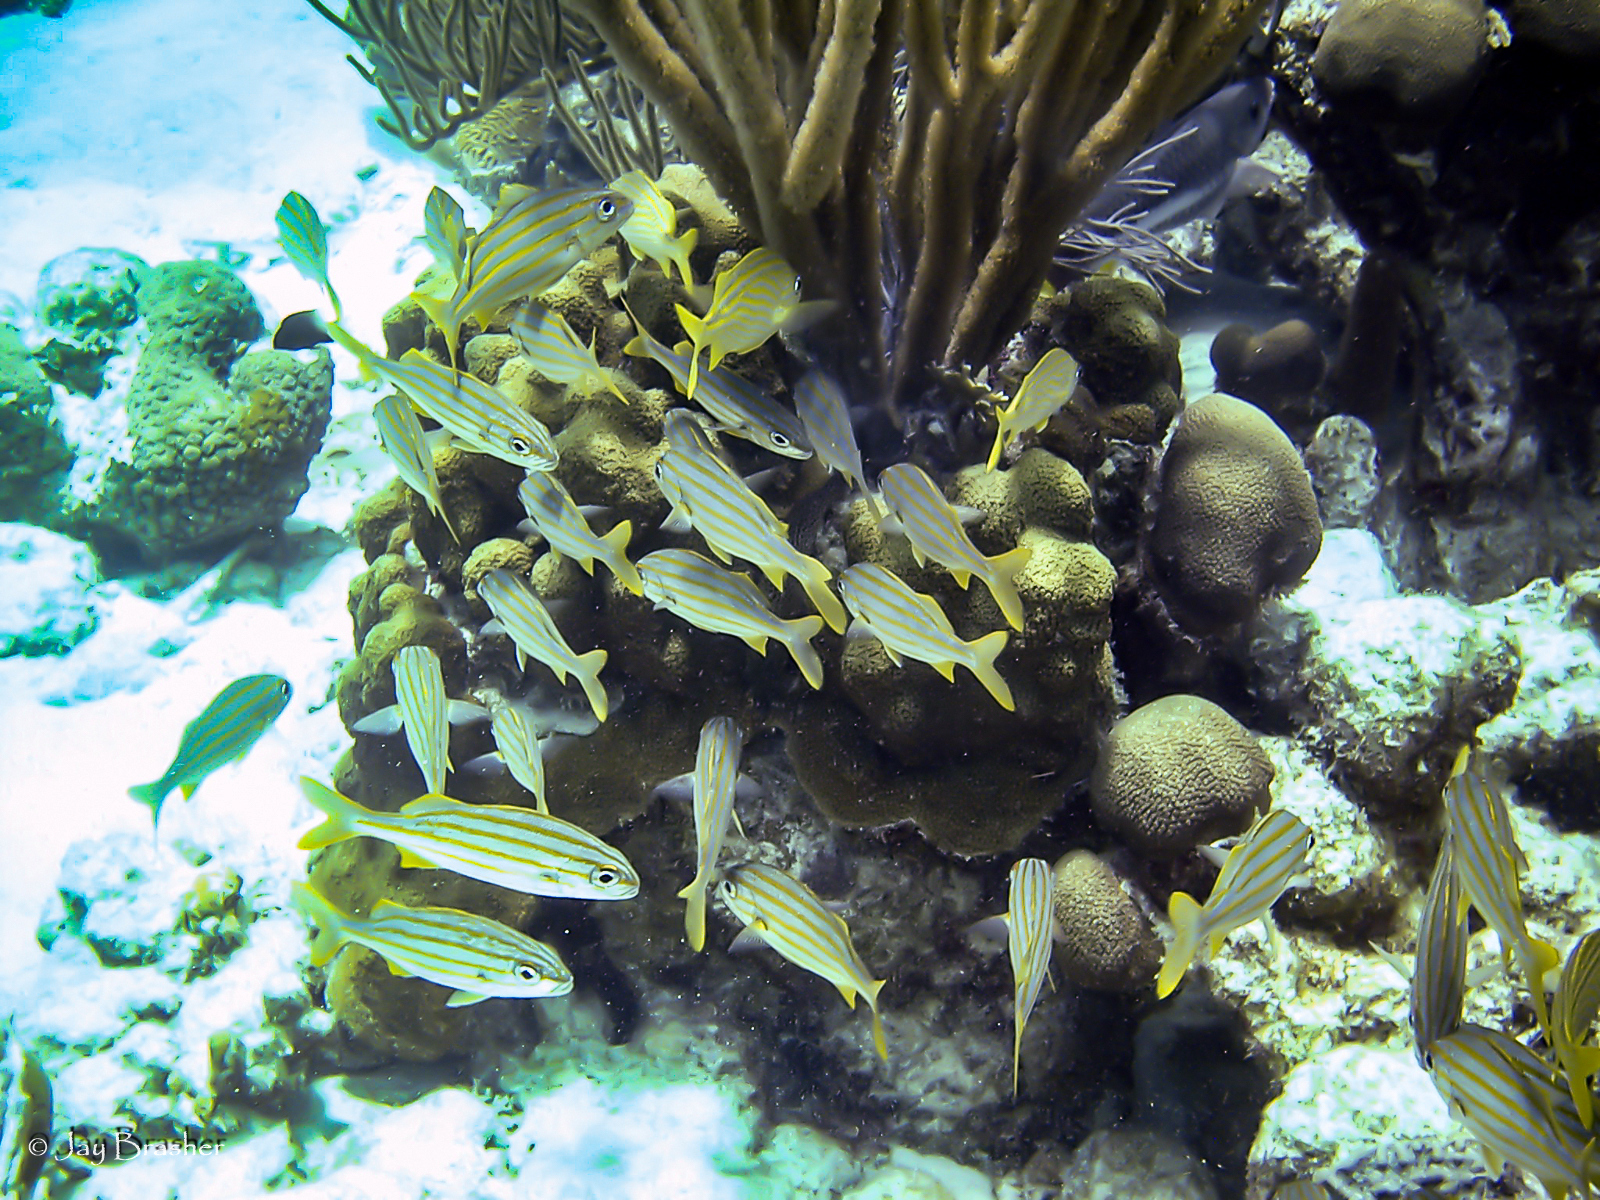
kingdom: Animalia
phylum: Chordata
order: Perciformes
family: Haemulidae
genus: Haemulon
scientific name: Haemulon chrysargyreum
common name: Smallmouth grunt
